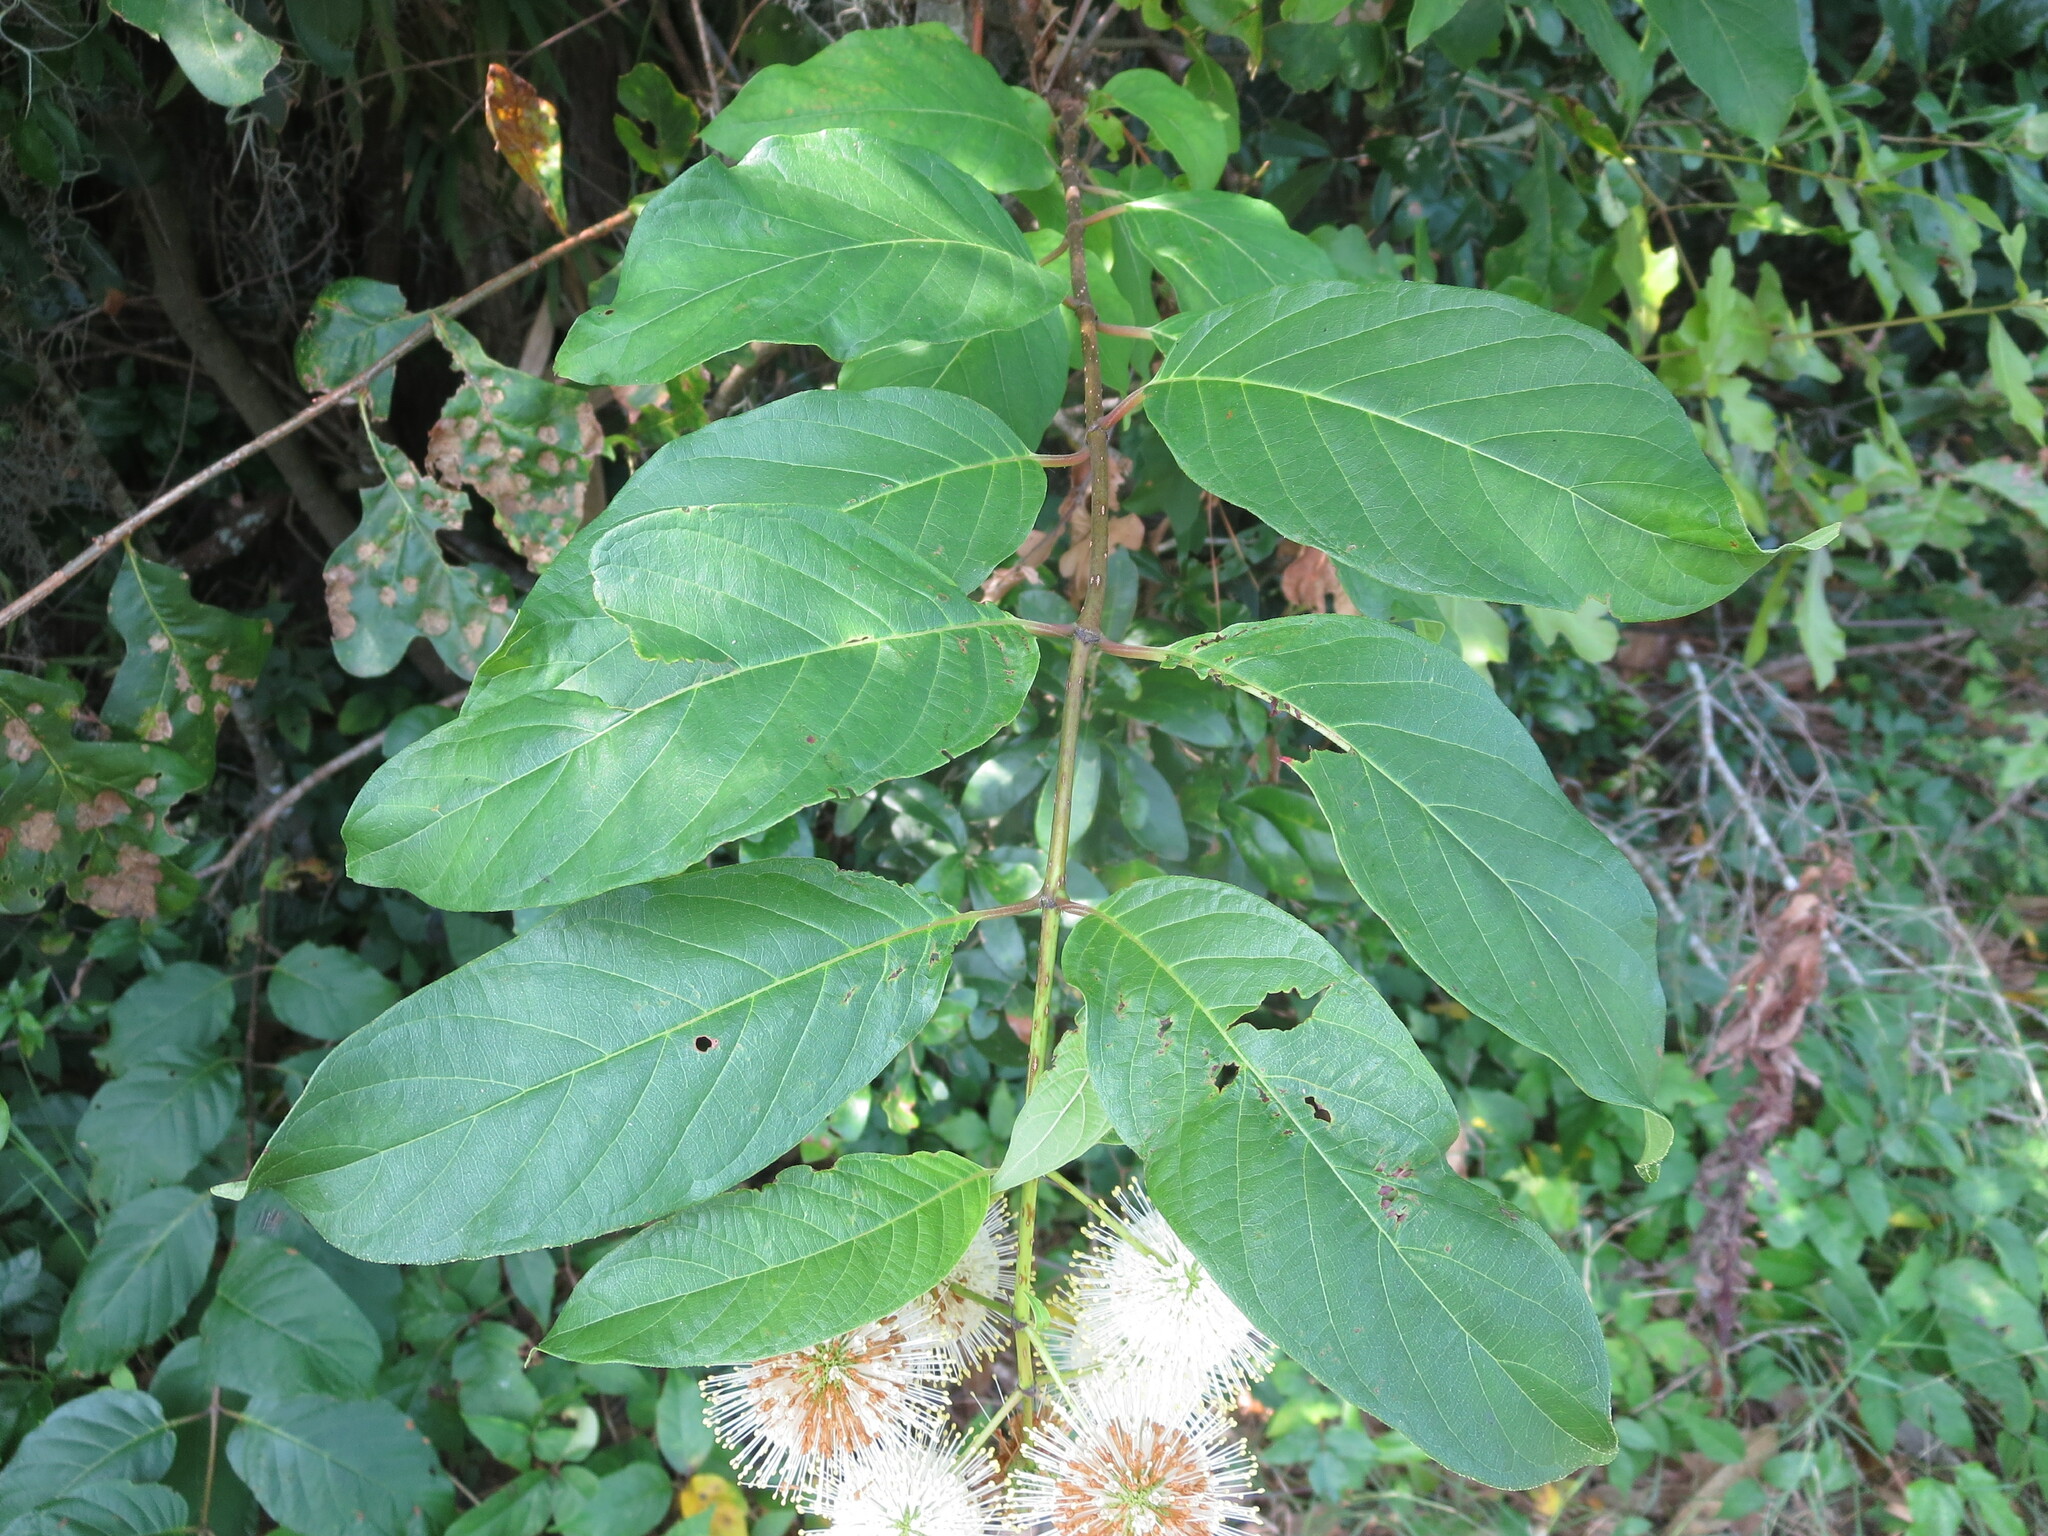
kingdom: Plantae
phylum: Tracheophyta
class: Magnoliopsida
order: Gentianales
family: Rubiaceae
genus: Cephalanthus
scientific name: Cephalanthus occidentalis
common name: Button-willow
